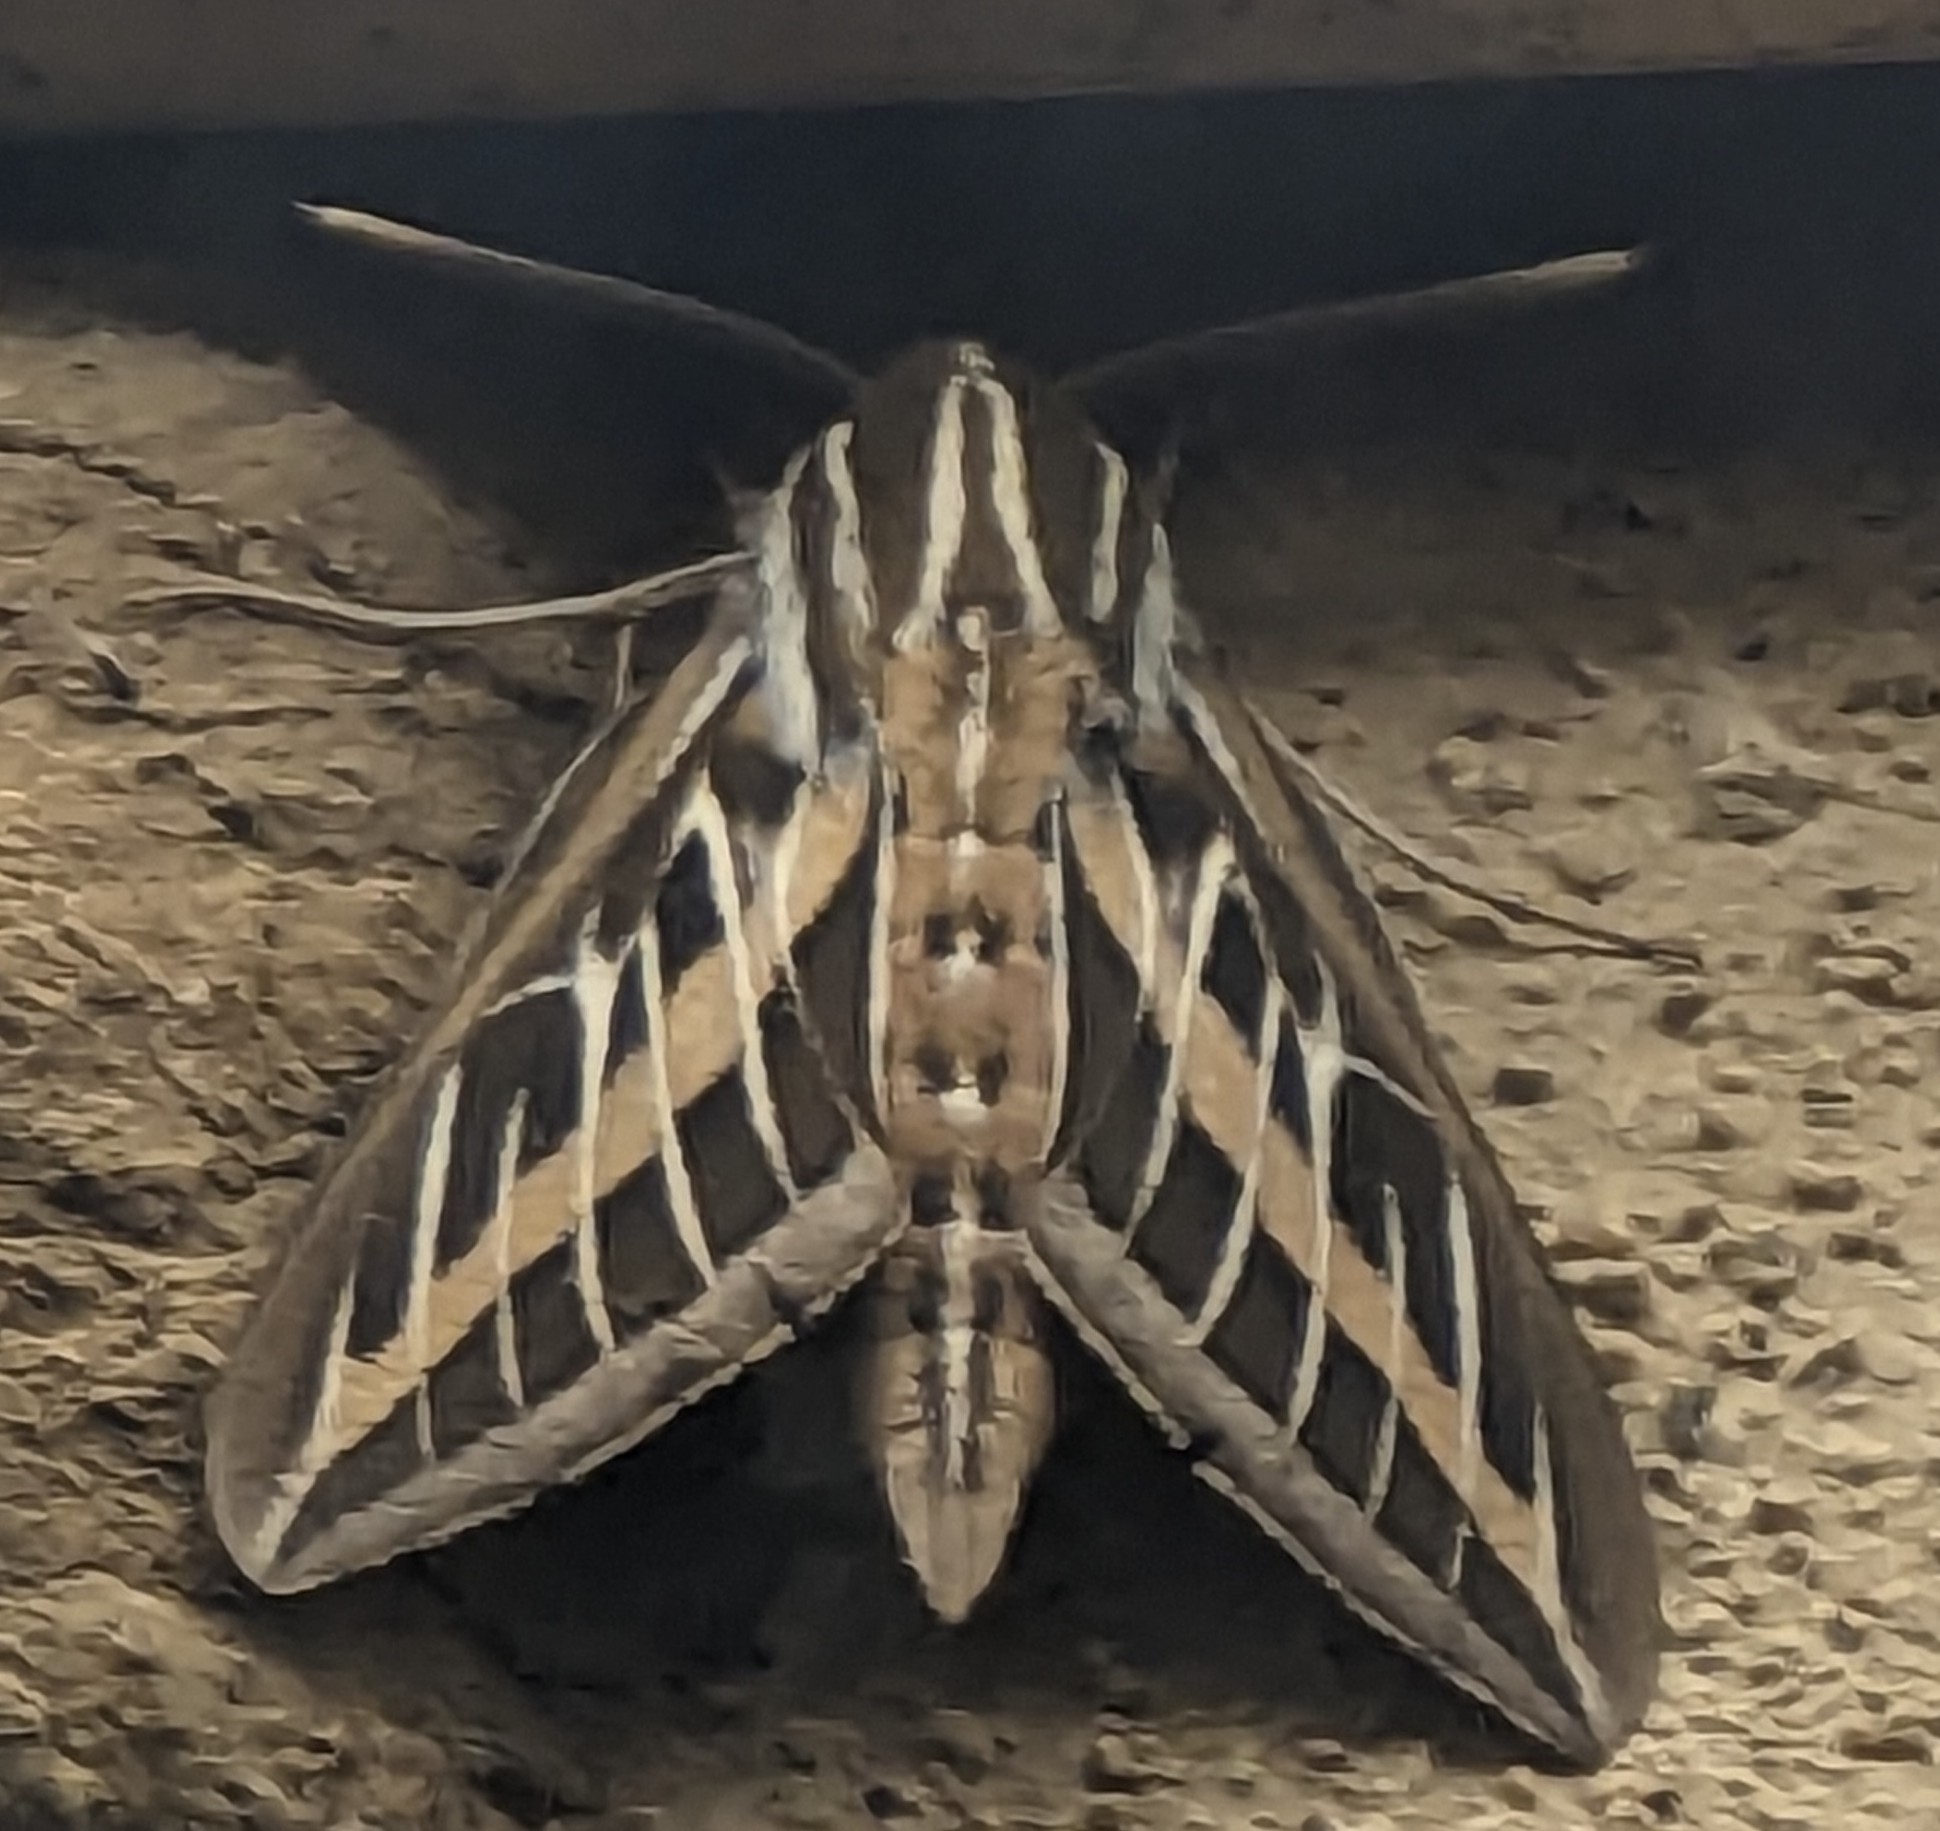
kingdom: Animalia
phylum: Arthropoda
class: Insecta
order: Lepidoptera
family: Sphingidae
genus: Hyles
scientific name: Hyles lineata
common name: White-lined sphinx
